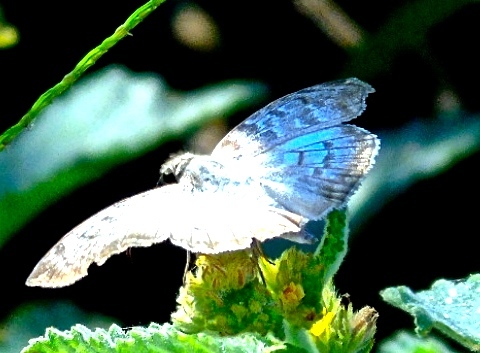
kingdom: Animalia
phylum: Arthropoda
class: Insecta
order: Lepidoptera
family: Hesperiidae
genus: Mylon
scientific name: Mylon pelopidas
